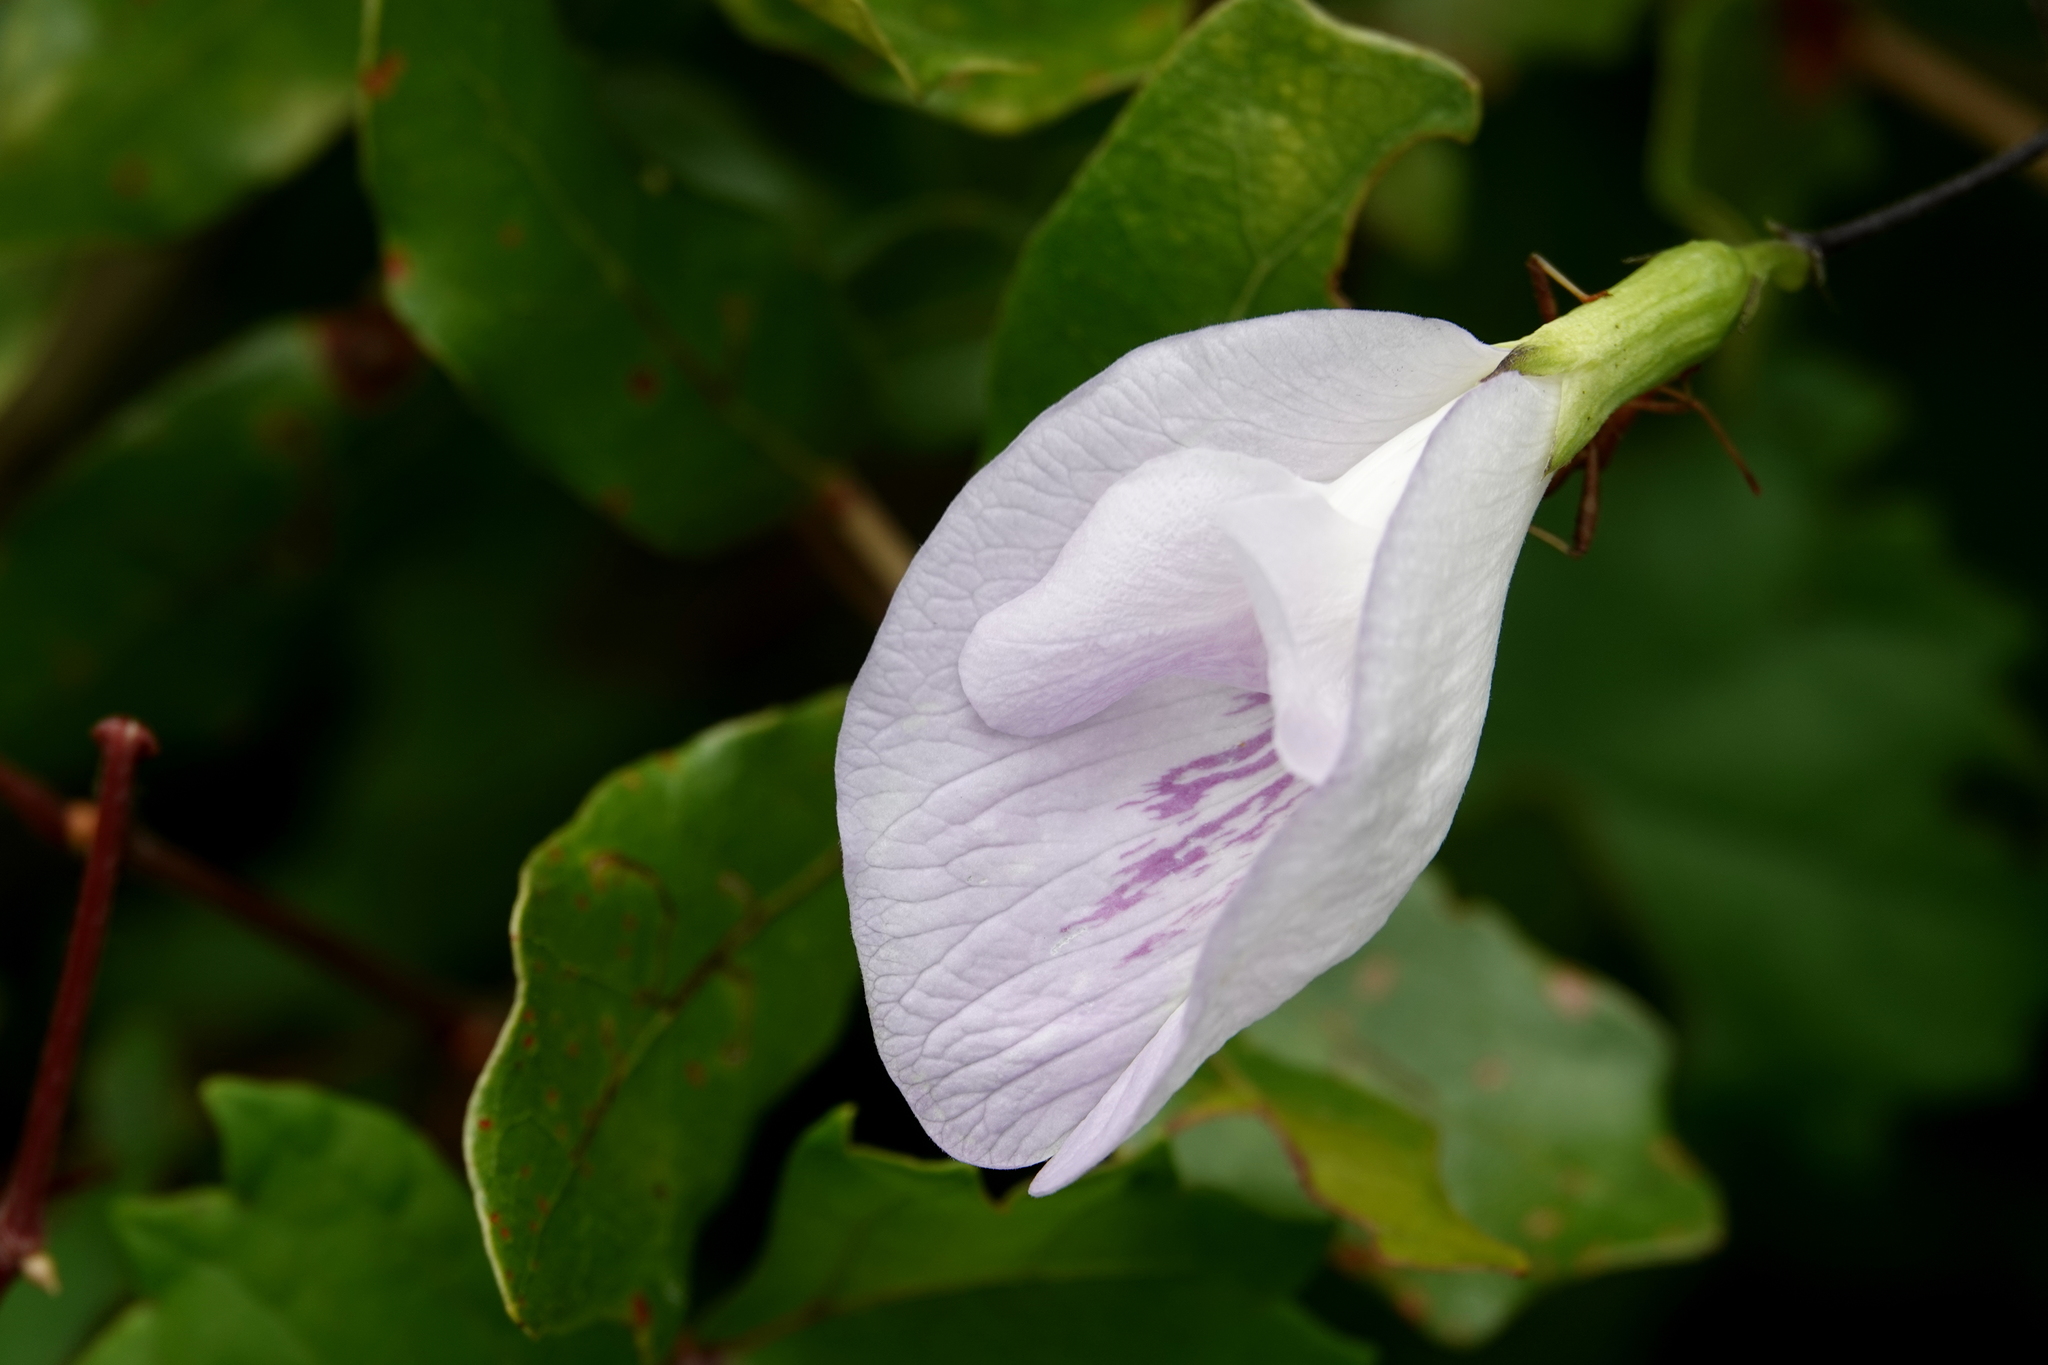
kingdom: Plantae
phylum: Tracheophyta
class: Magnoliopsida
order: Fabales
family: Fabaceae
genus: Clitoria
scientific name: Clitoria mariana
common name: Butterfly-pea
